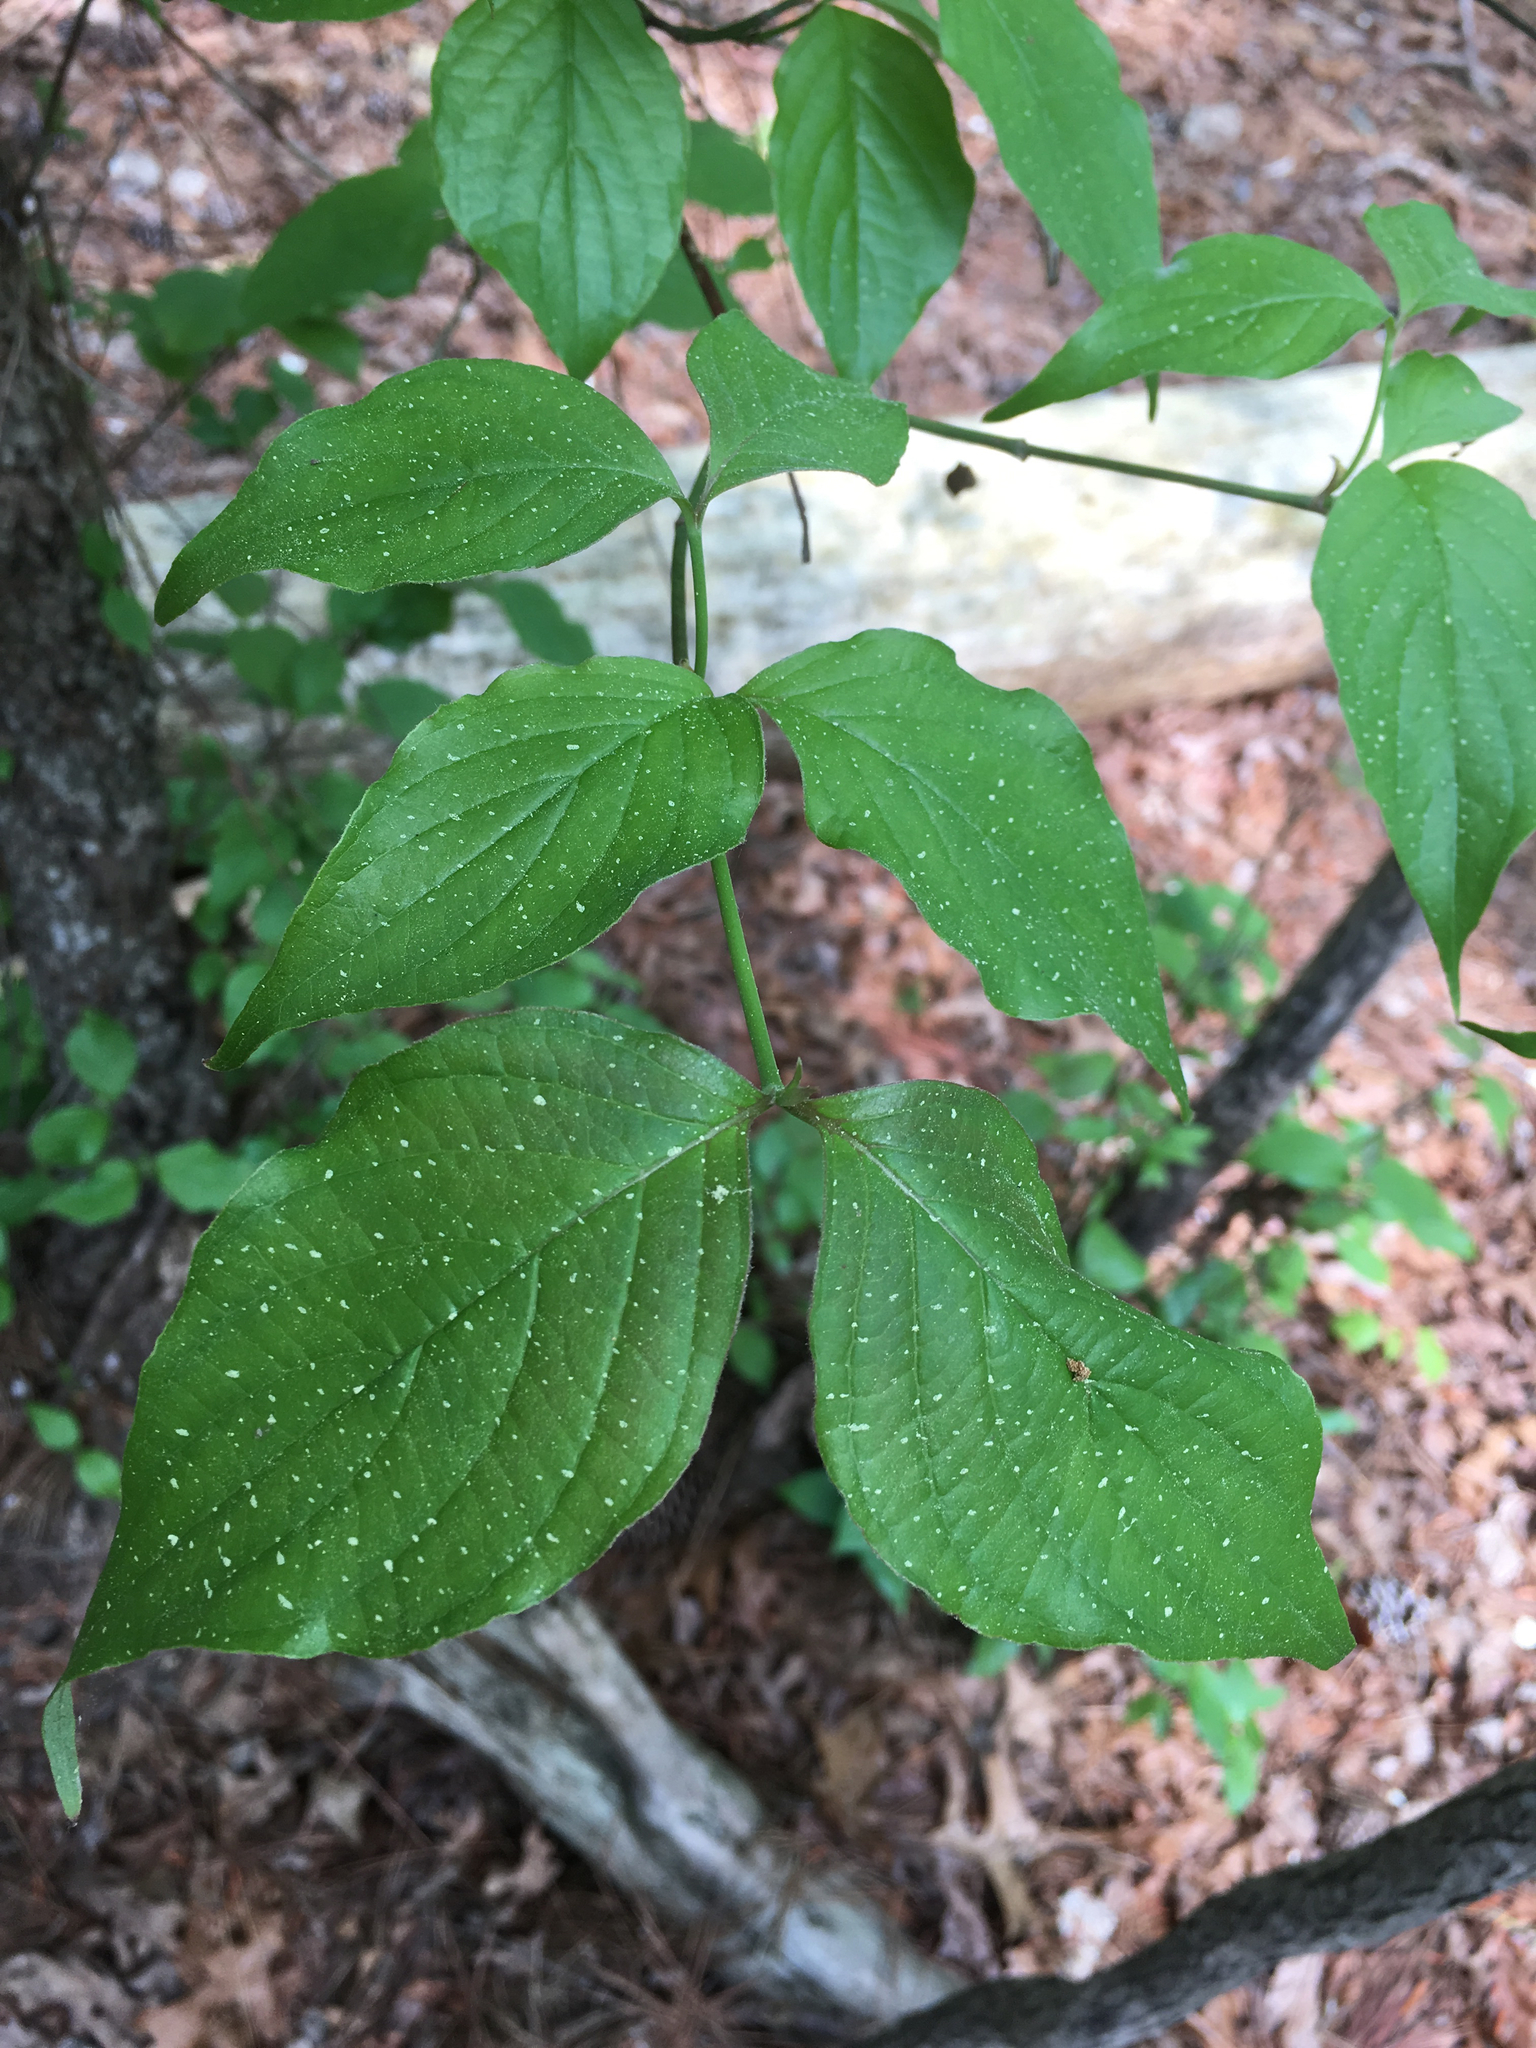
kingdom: Plantae
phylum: Tracheophyta
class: Magnoliopsida
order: Cornales
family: Cornaceae
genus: Cornus
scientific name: Cornus florida
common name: Flowering dogwood
